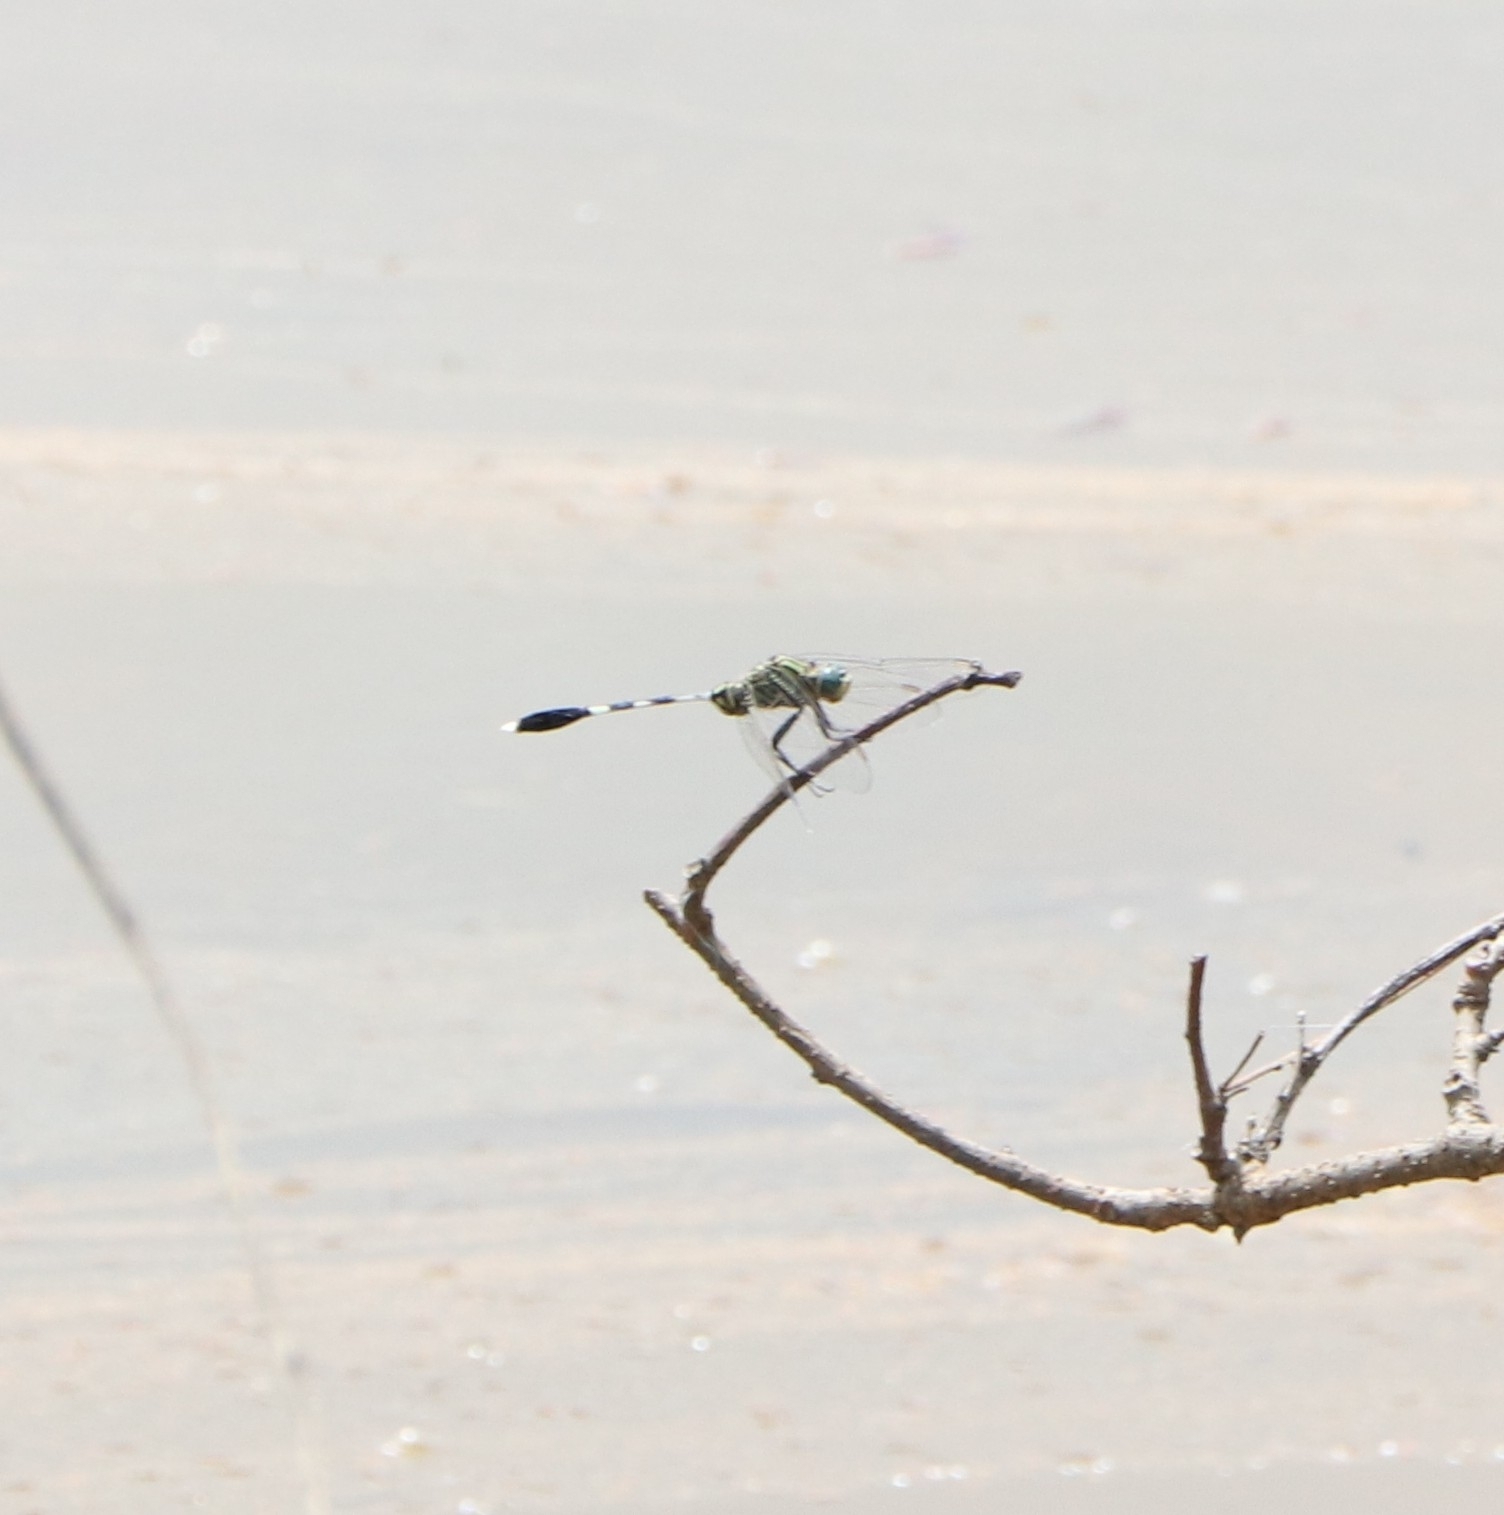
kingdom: Animalia
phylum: Arthropoda
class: Insecta
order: Odonata
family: Libellulidae
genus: Orthetrum
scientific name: Orthetrum sabina
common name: Slender skimmer
